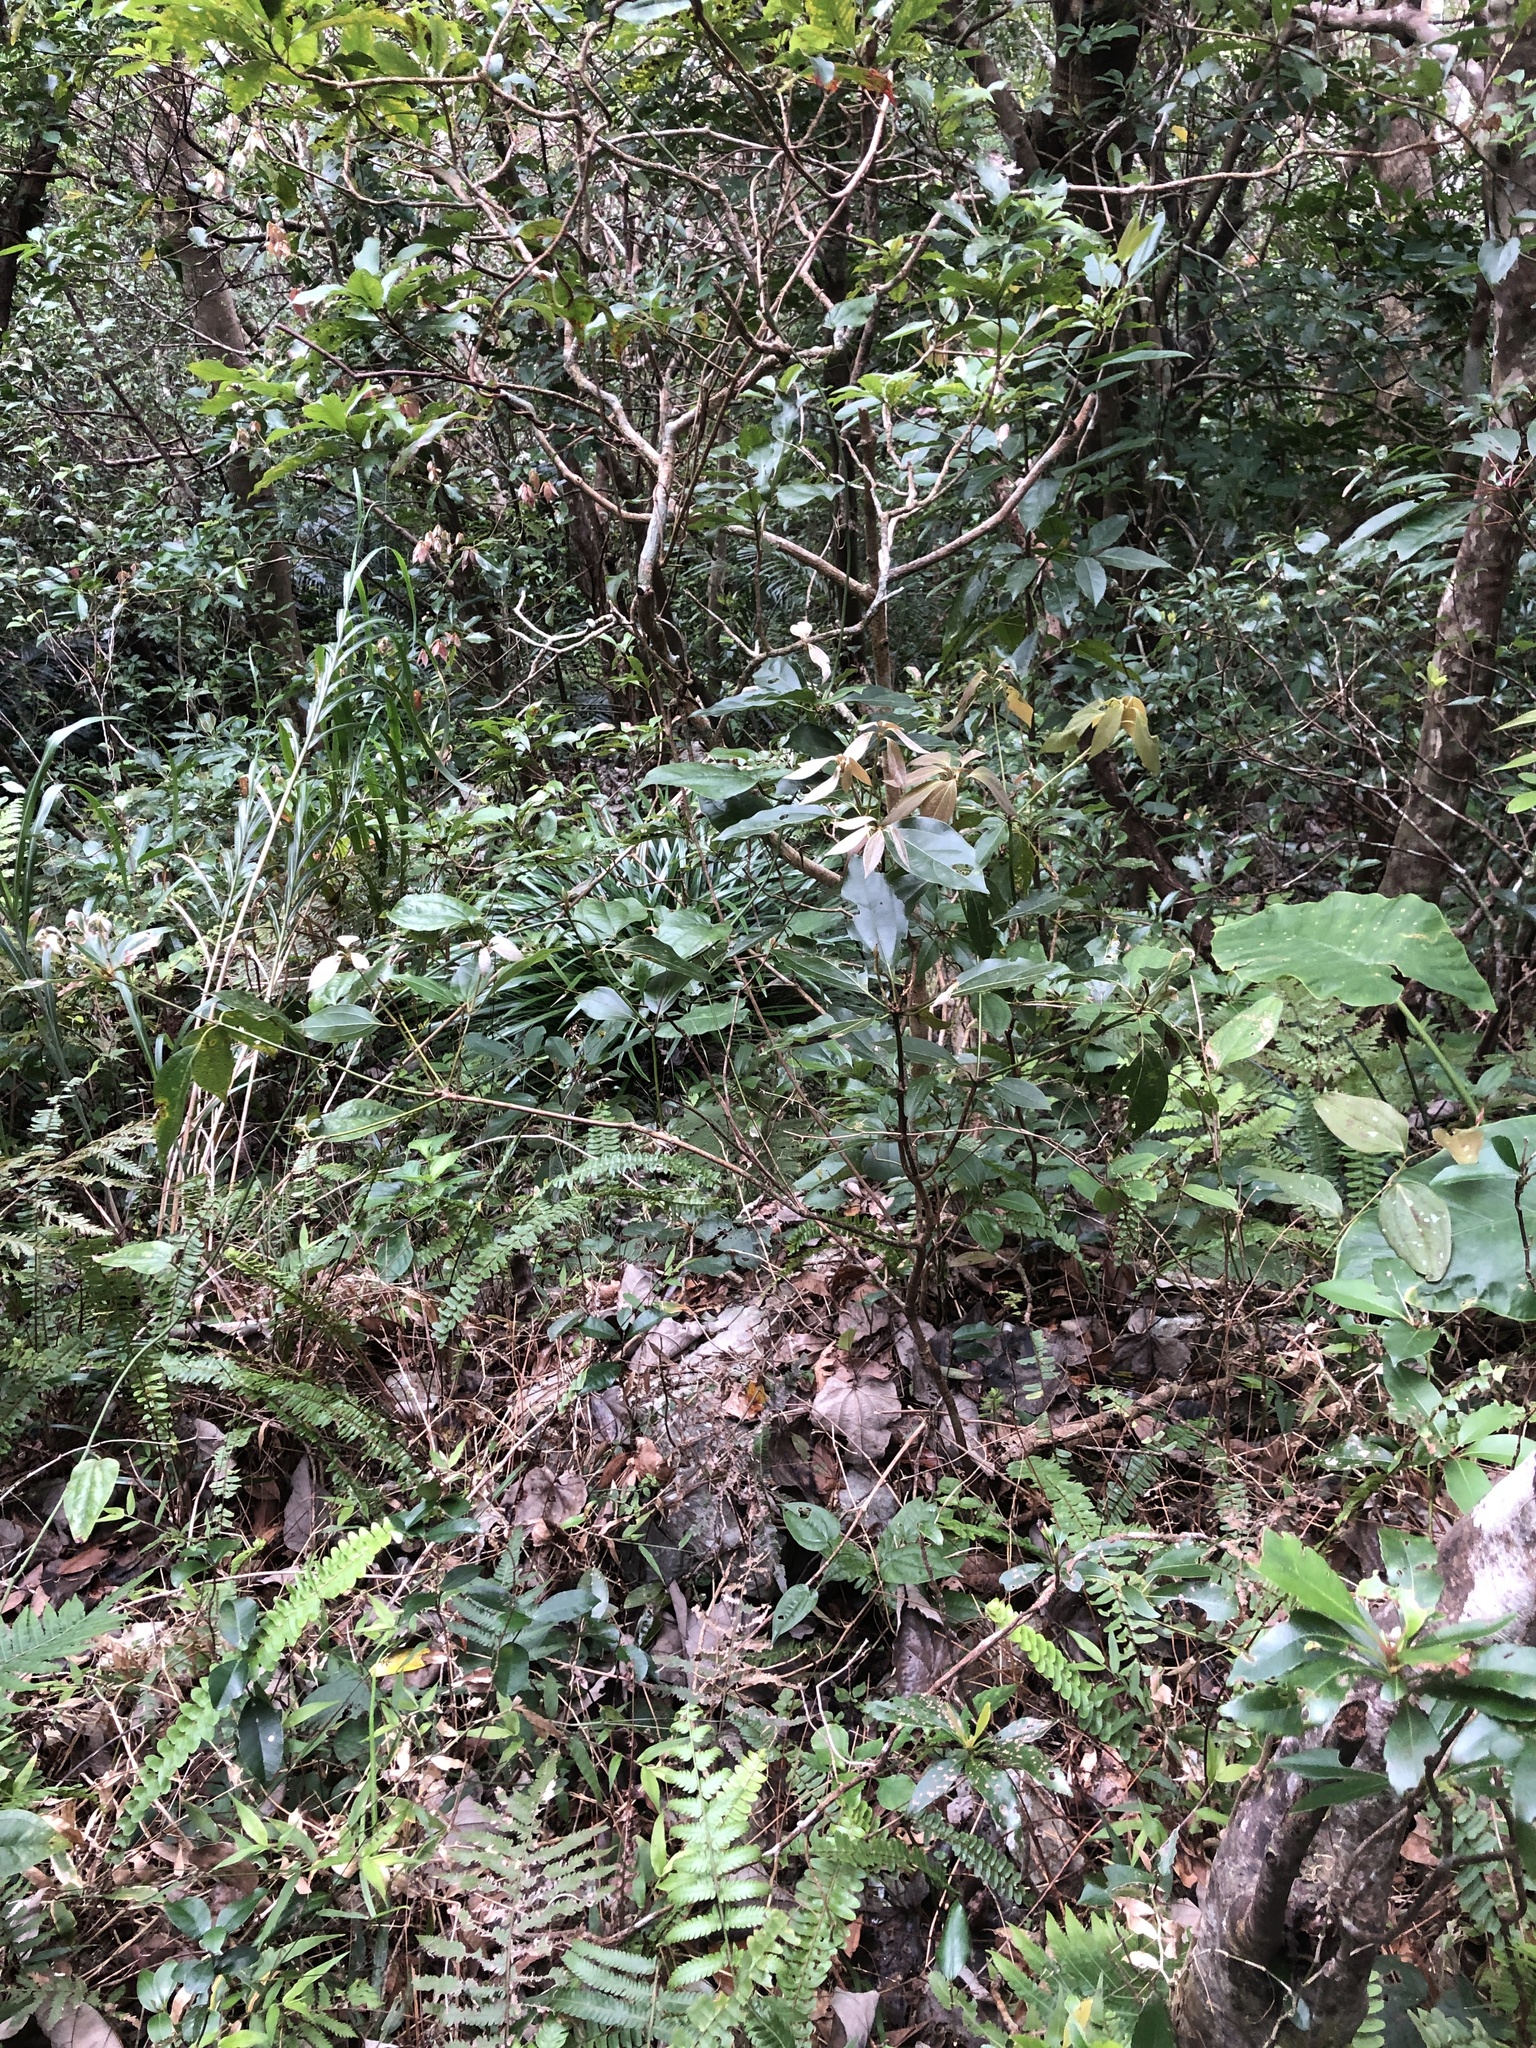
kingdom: Plantae
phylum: Tracheophyta
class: Magnoliopsida
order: Laurales
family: Lauraceae
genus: Neolitsea
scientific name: Neolitsea sericea
